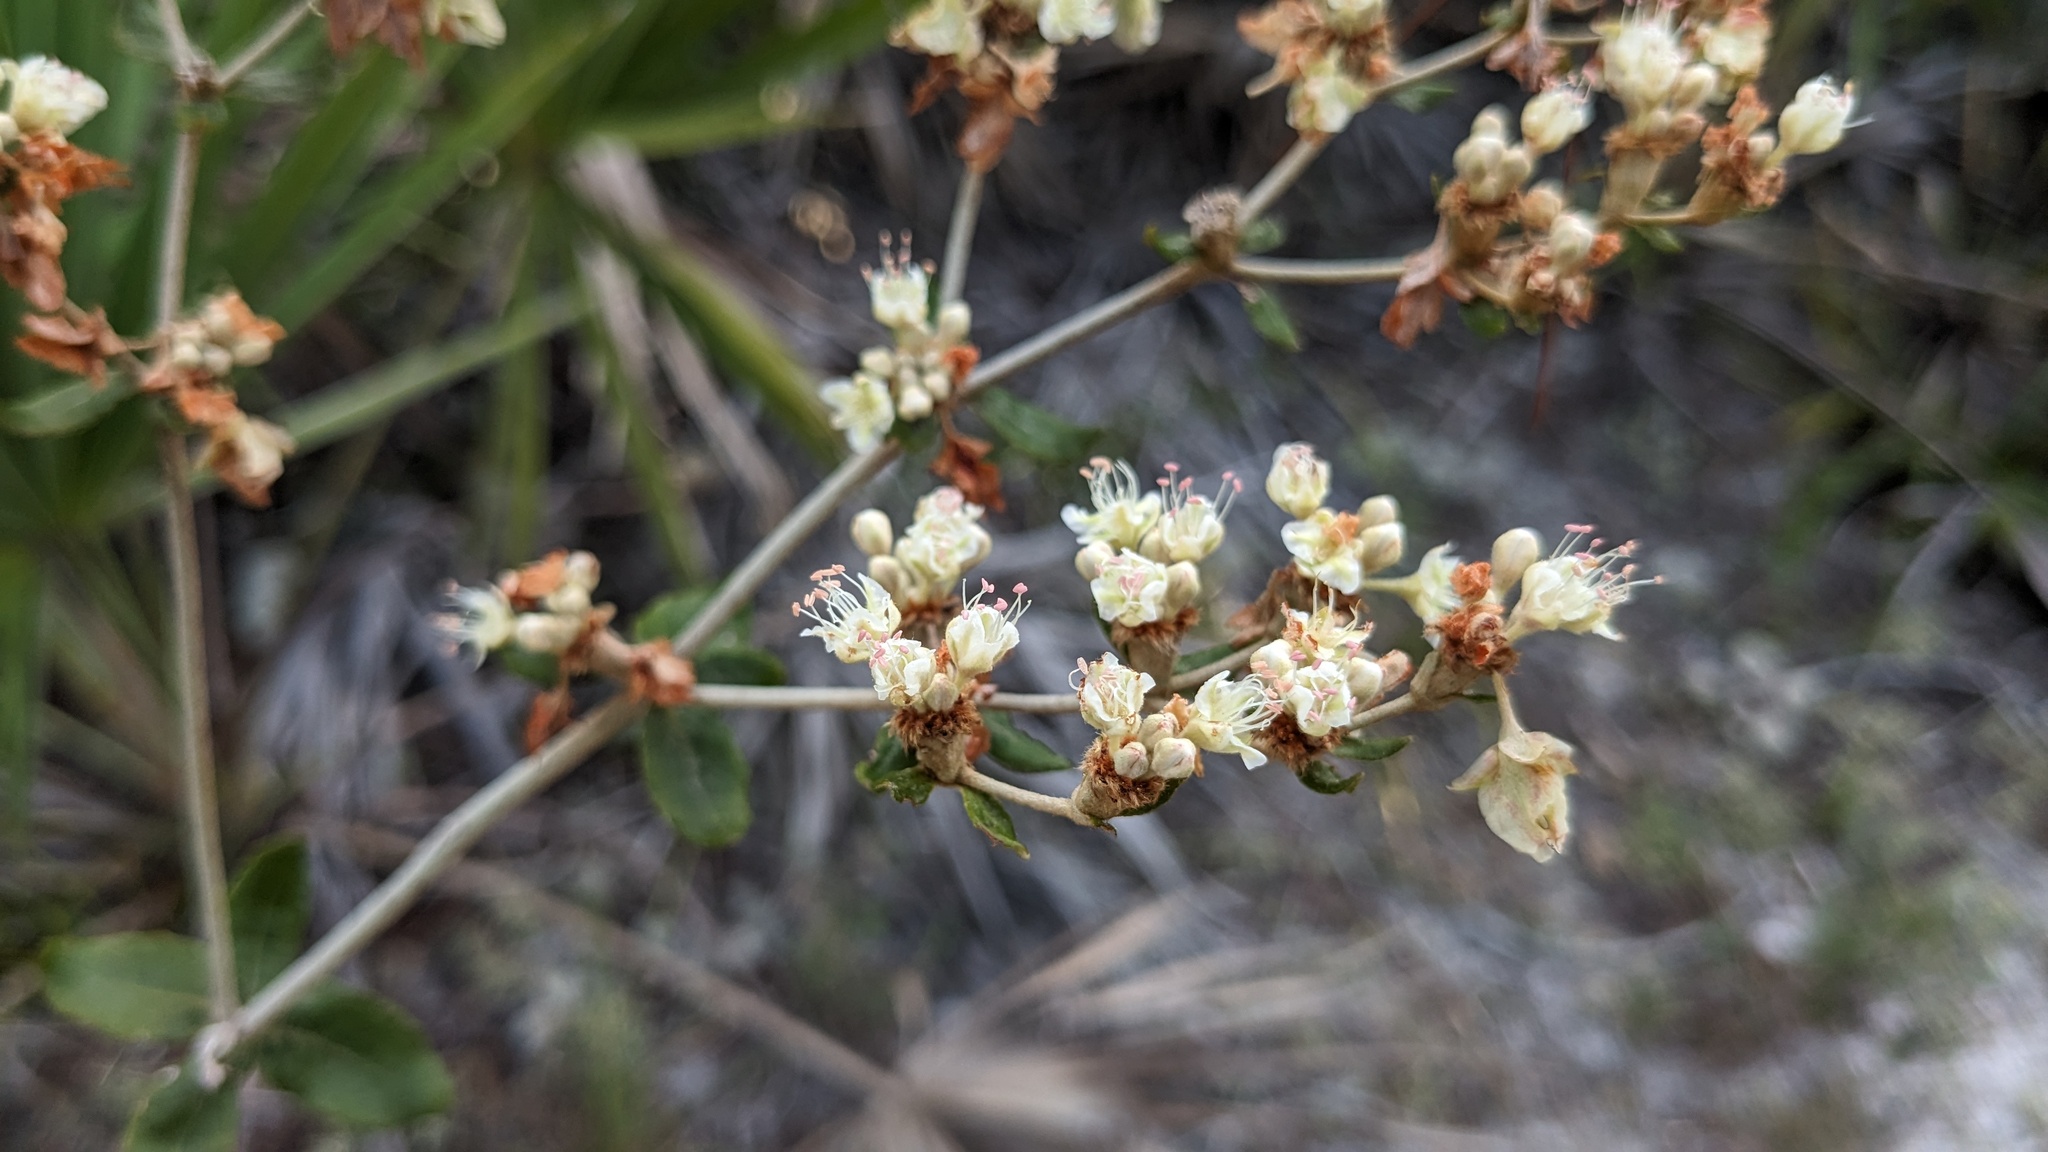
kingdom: Plantae
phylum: Tracheophyta
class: Magnoliopsida
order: Caryophyllales
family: Polygonaceae
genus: Eriogonum
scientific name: Eriogonum tomentosum
